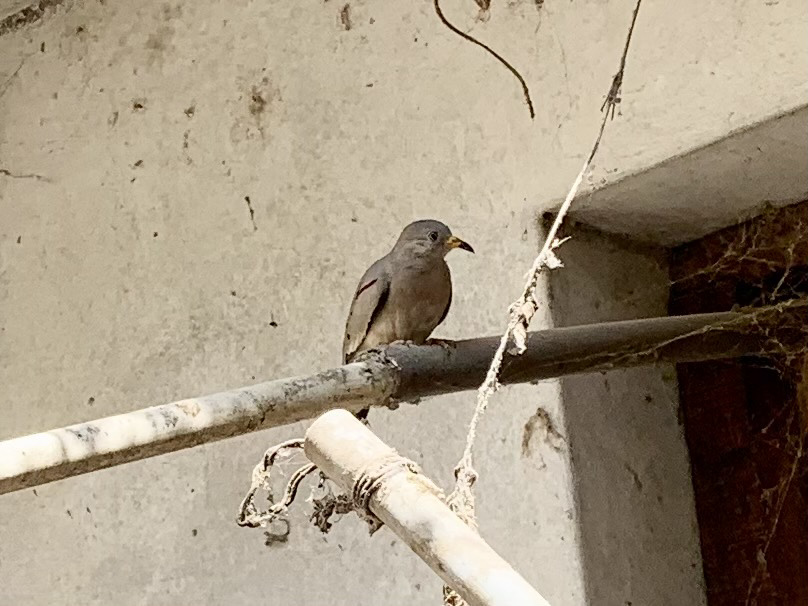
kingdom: Animalia
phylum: Chordata
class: Aves
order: Columbiformes
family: Columbidae
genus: Columbina
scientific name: Columbina cruziana
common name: Croaking ground dove
